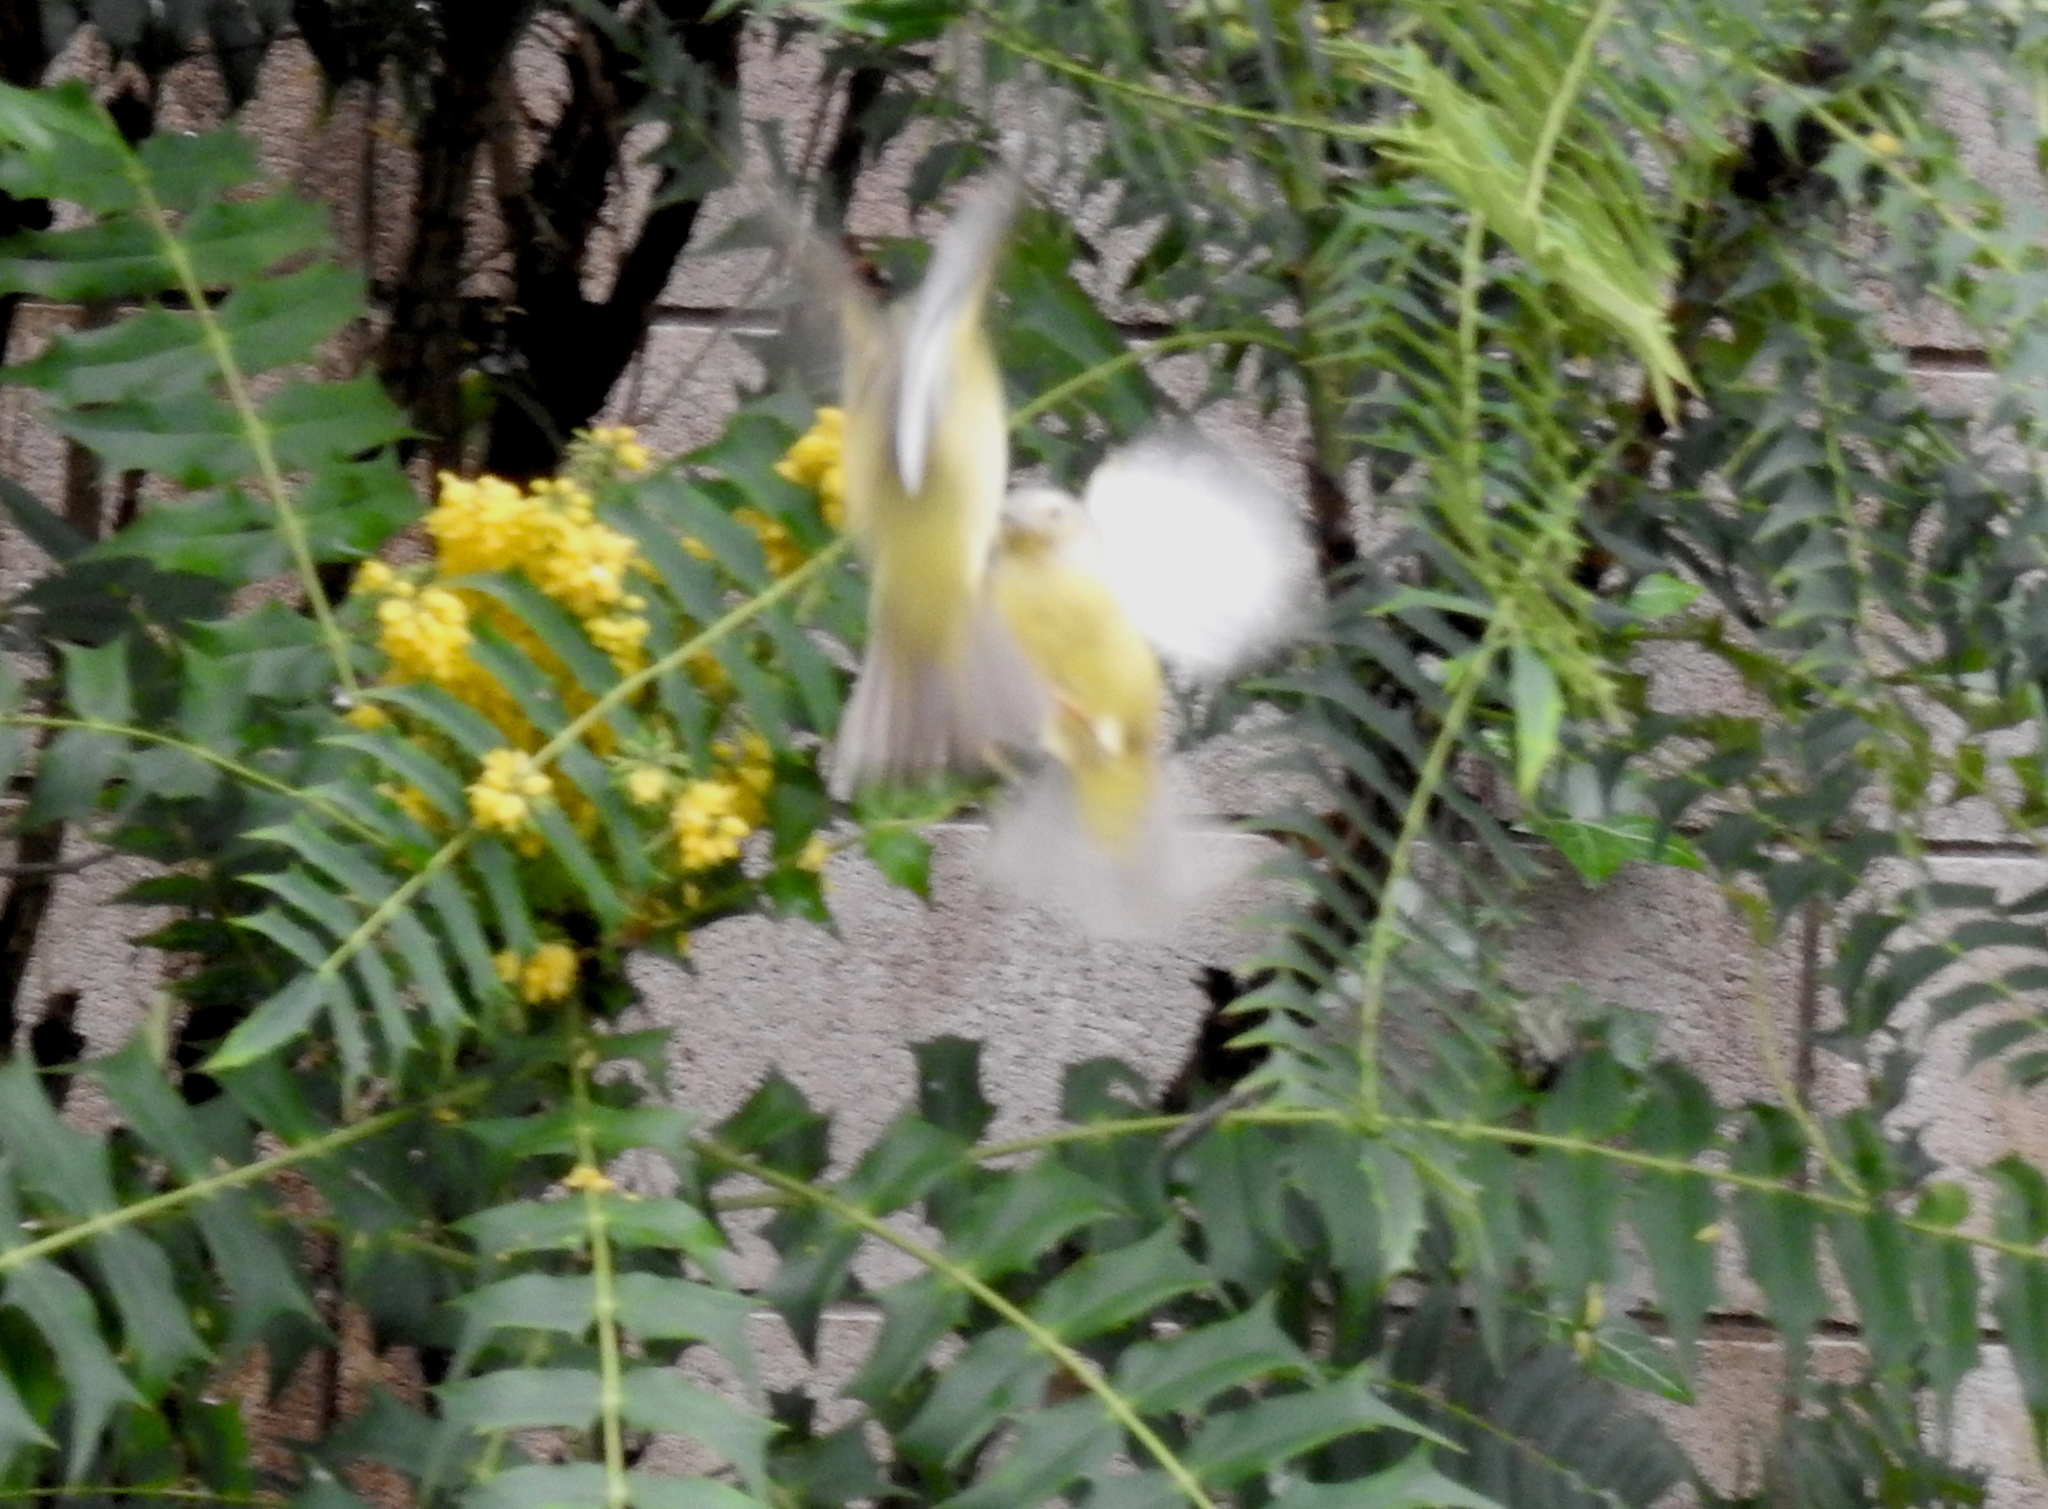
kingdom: Animalia
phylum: Chordata
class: Aves
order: Passeriformes
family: Parulidae
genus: Leiothlypis
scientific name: Leiothlypis celata
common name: Orange-crowned warbler
